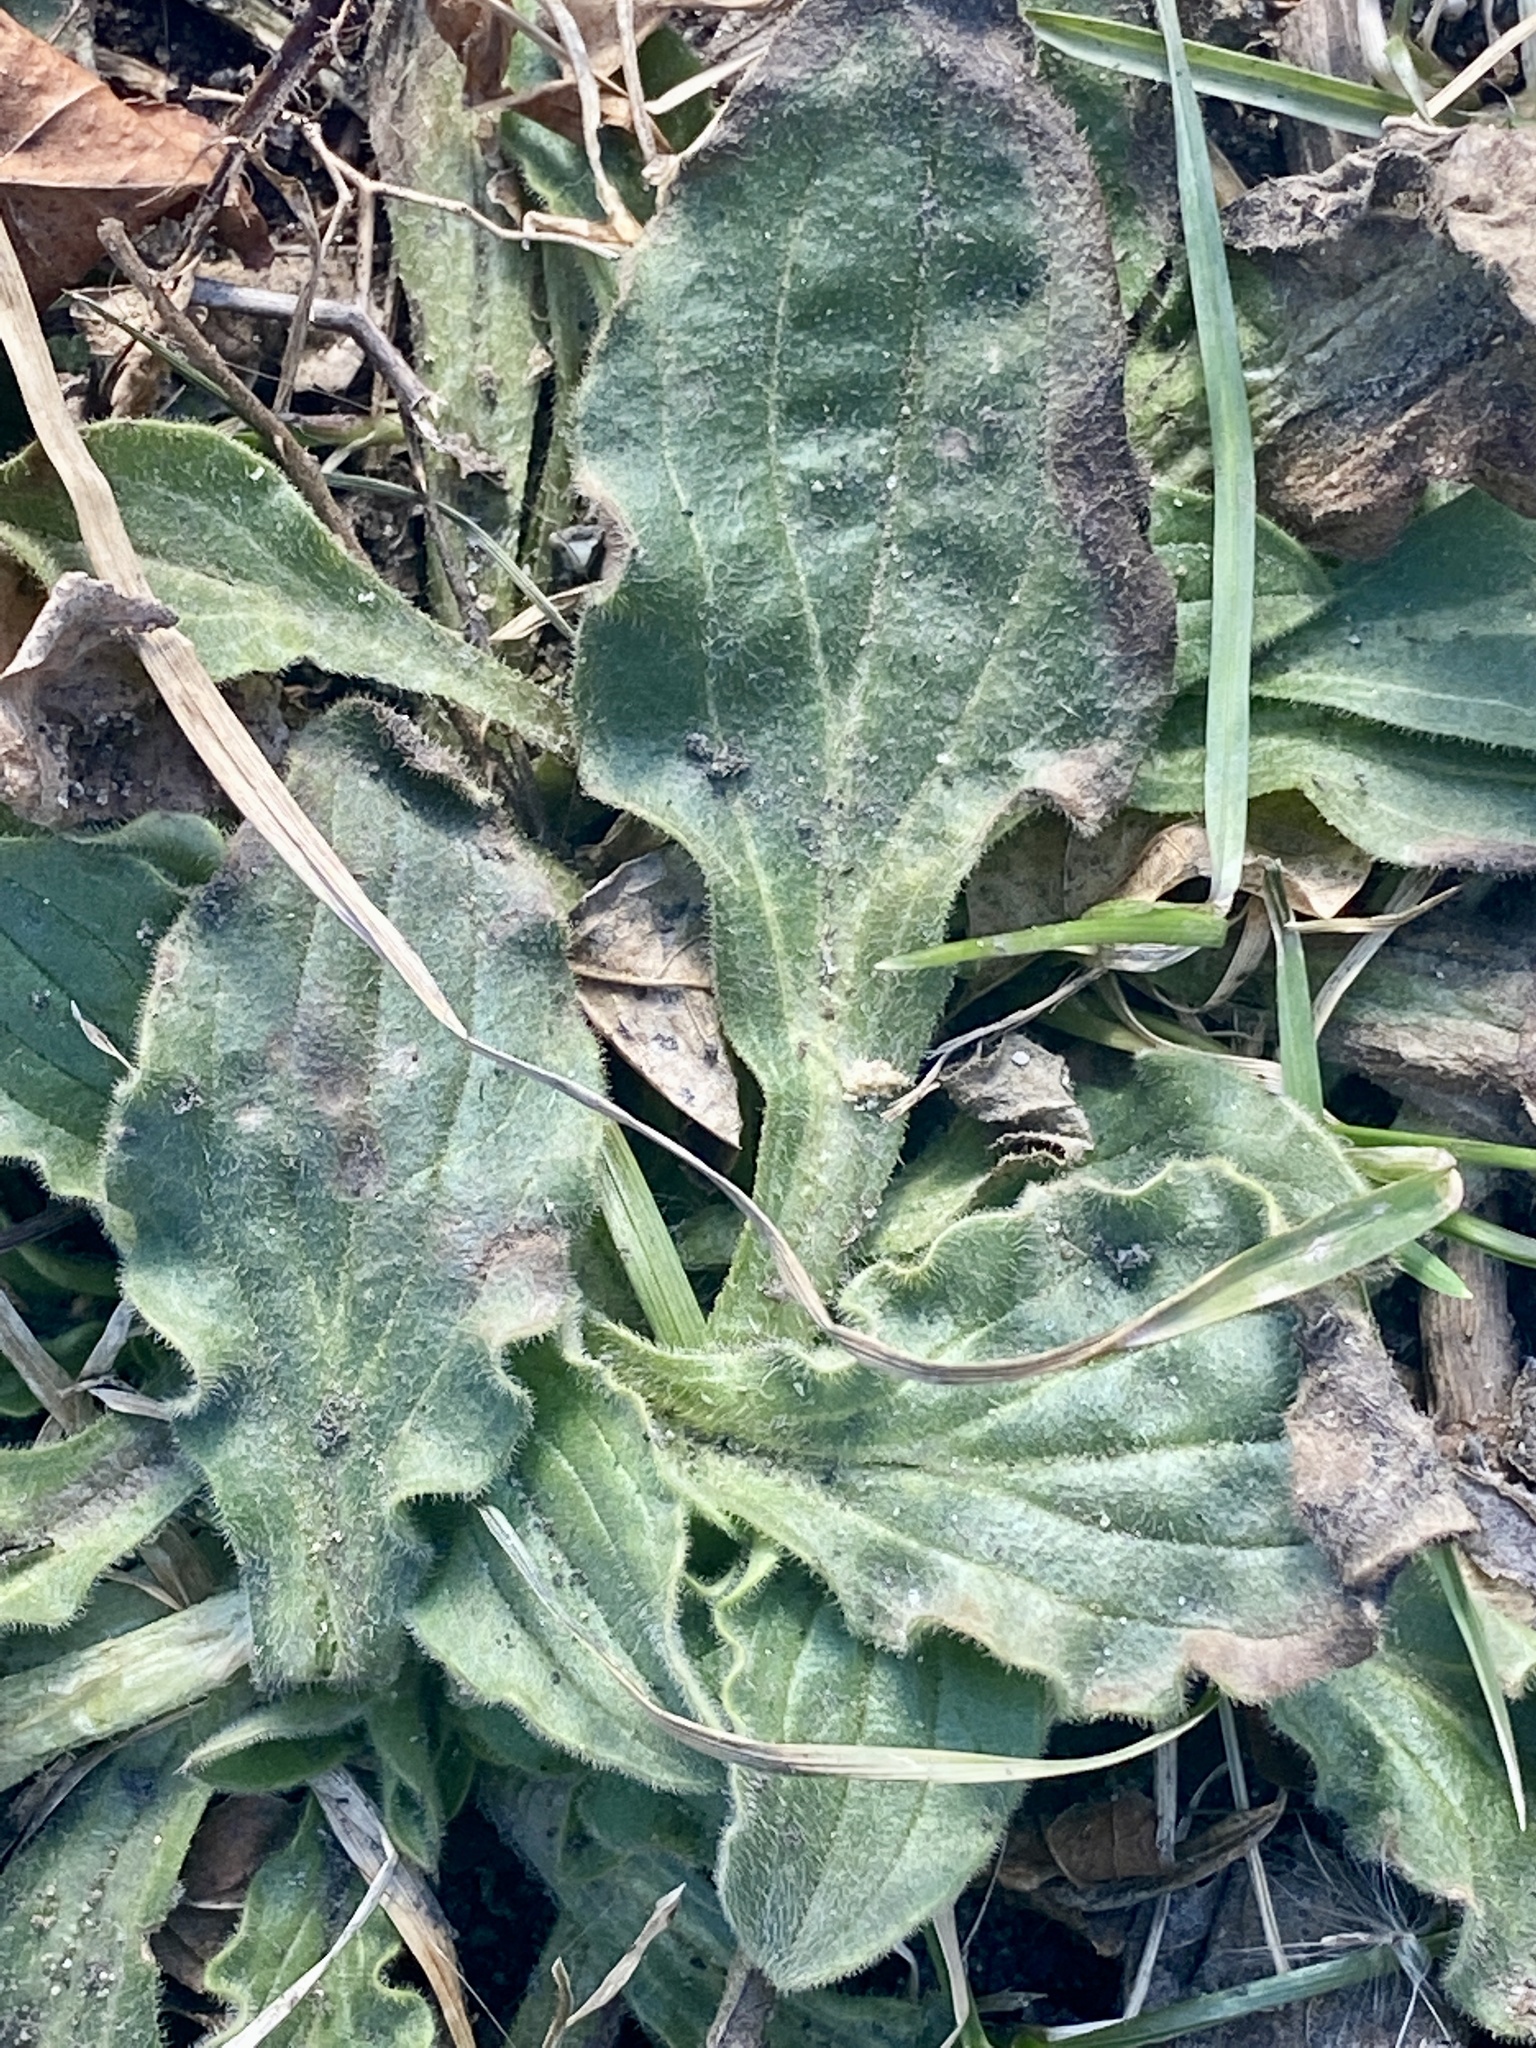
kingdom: Plantae
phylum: Tracheophyta
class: Magnoliopsida
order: Caryophyllales
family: Caryophyllaceae
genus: Silene
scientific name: Silene latifolia
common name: White campion
